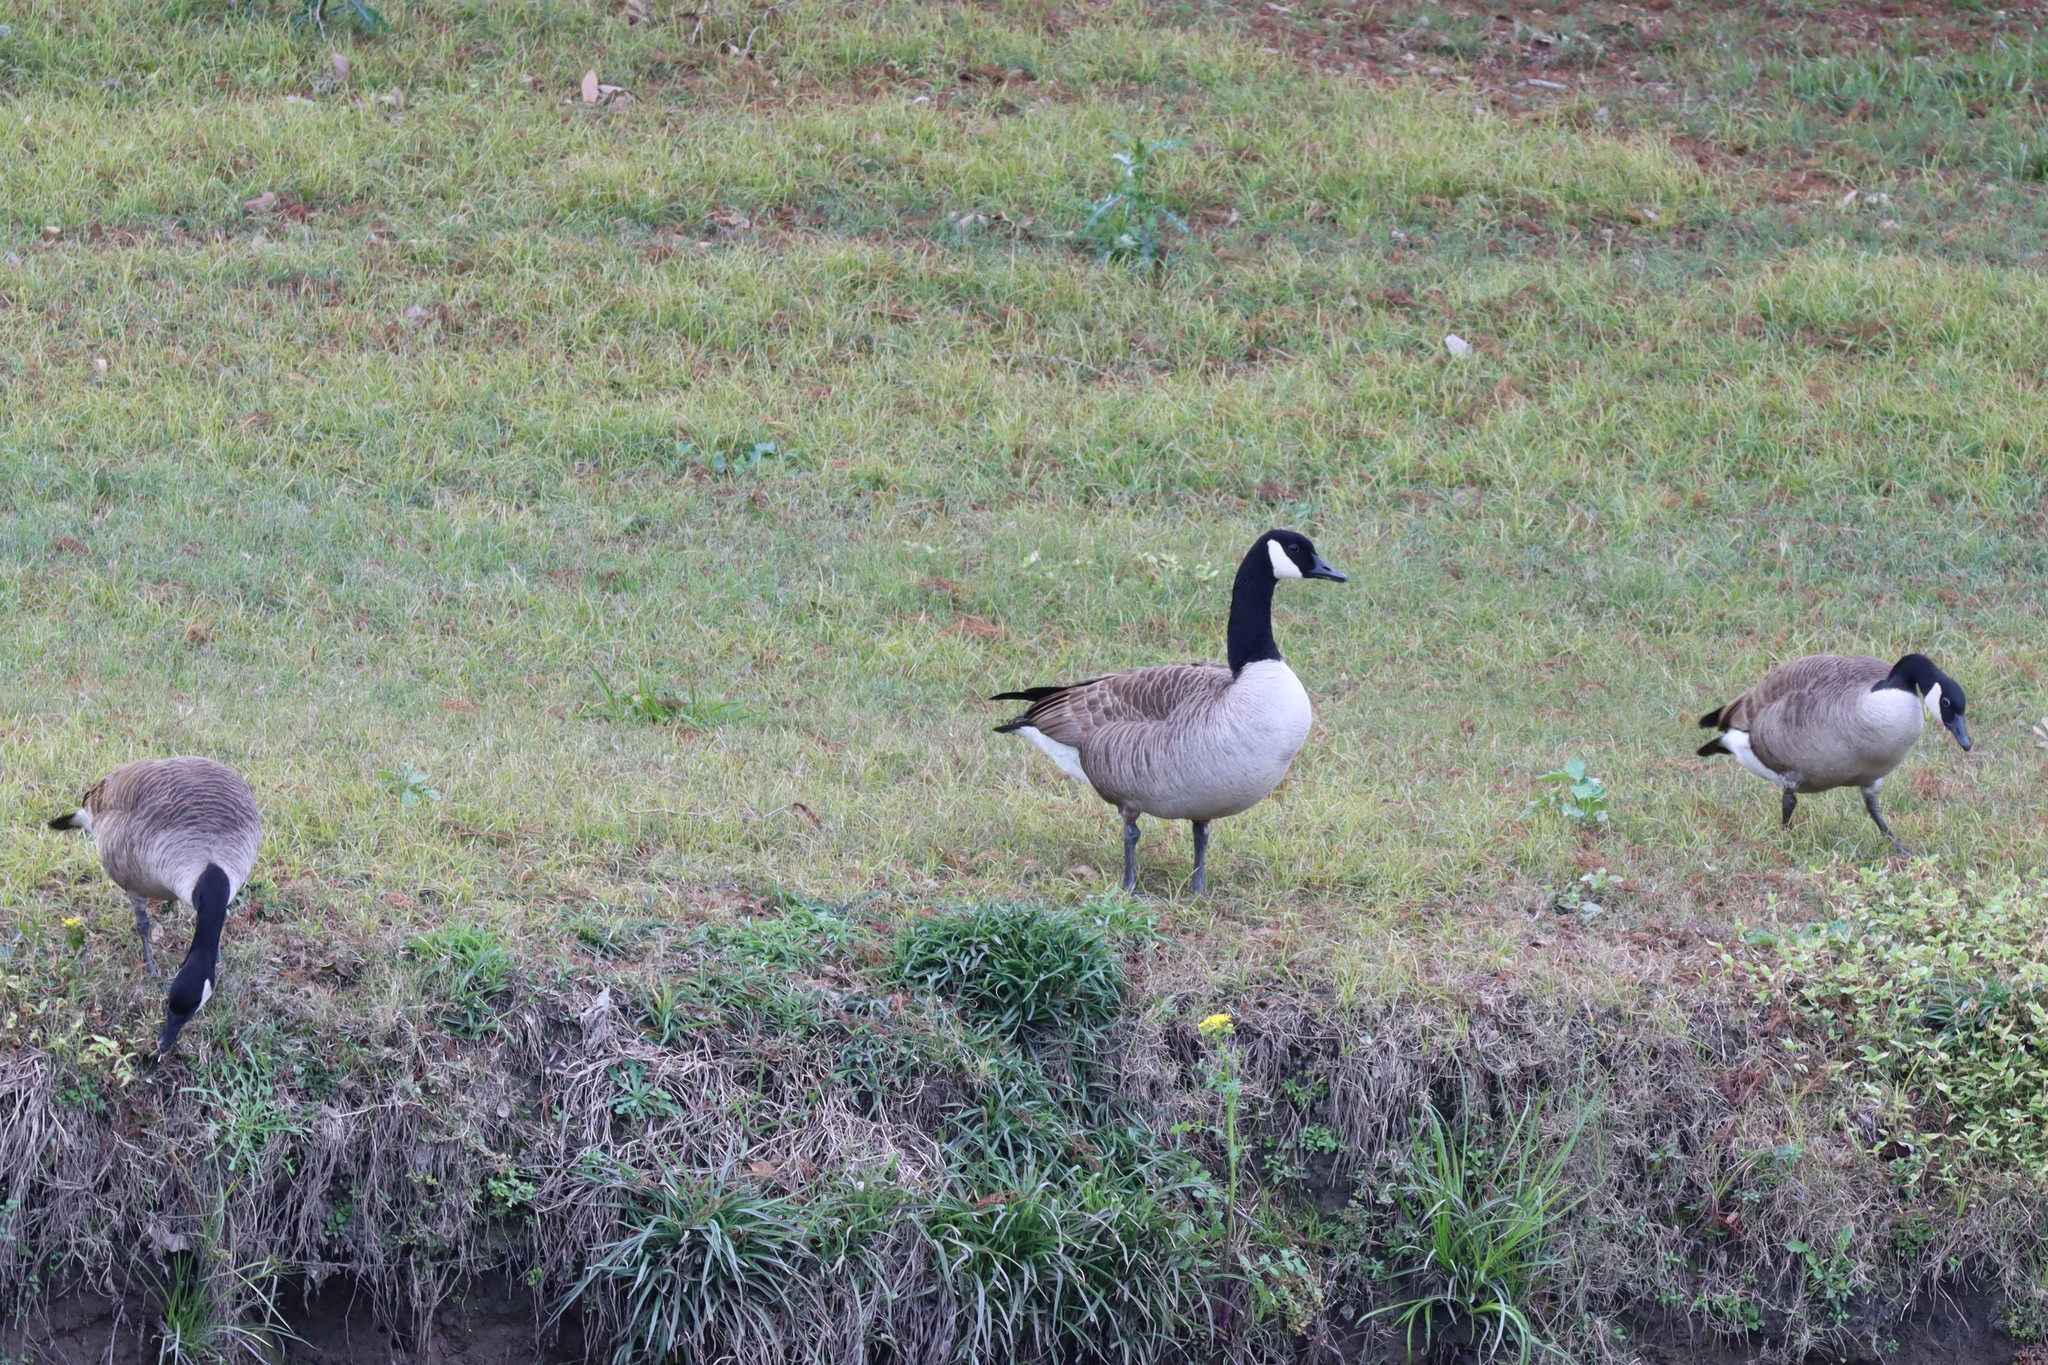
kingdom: Animalia
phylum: Chordata
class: Aves
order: Anseriformes
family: Anatidae
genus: Branta
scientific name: Branta canadensis
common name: Canada goose
